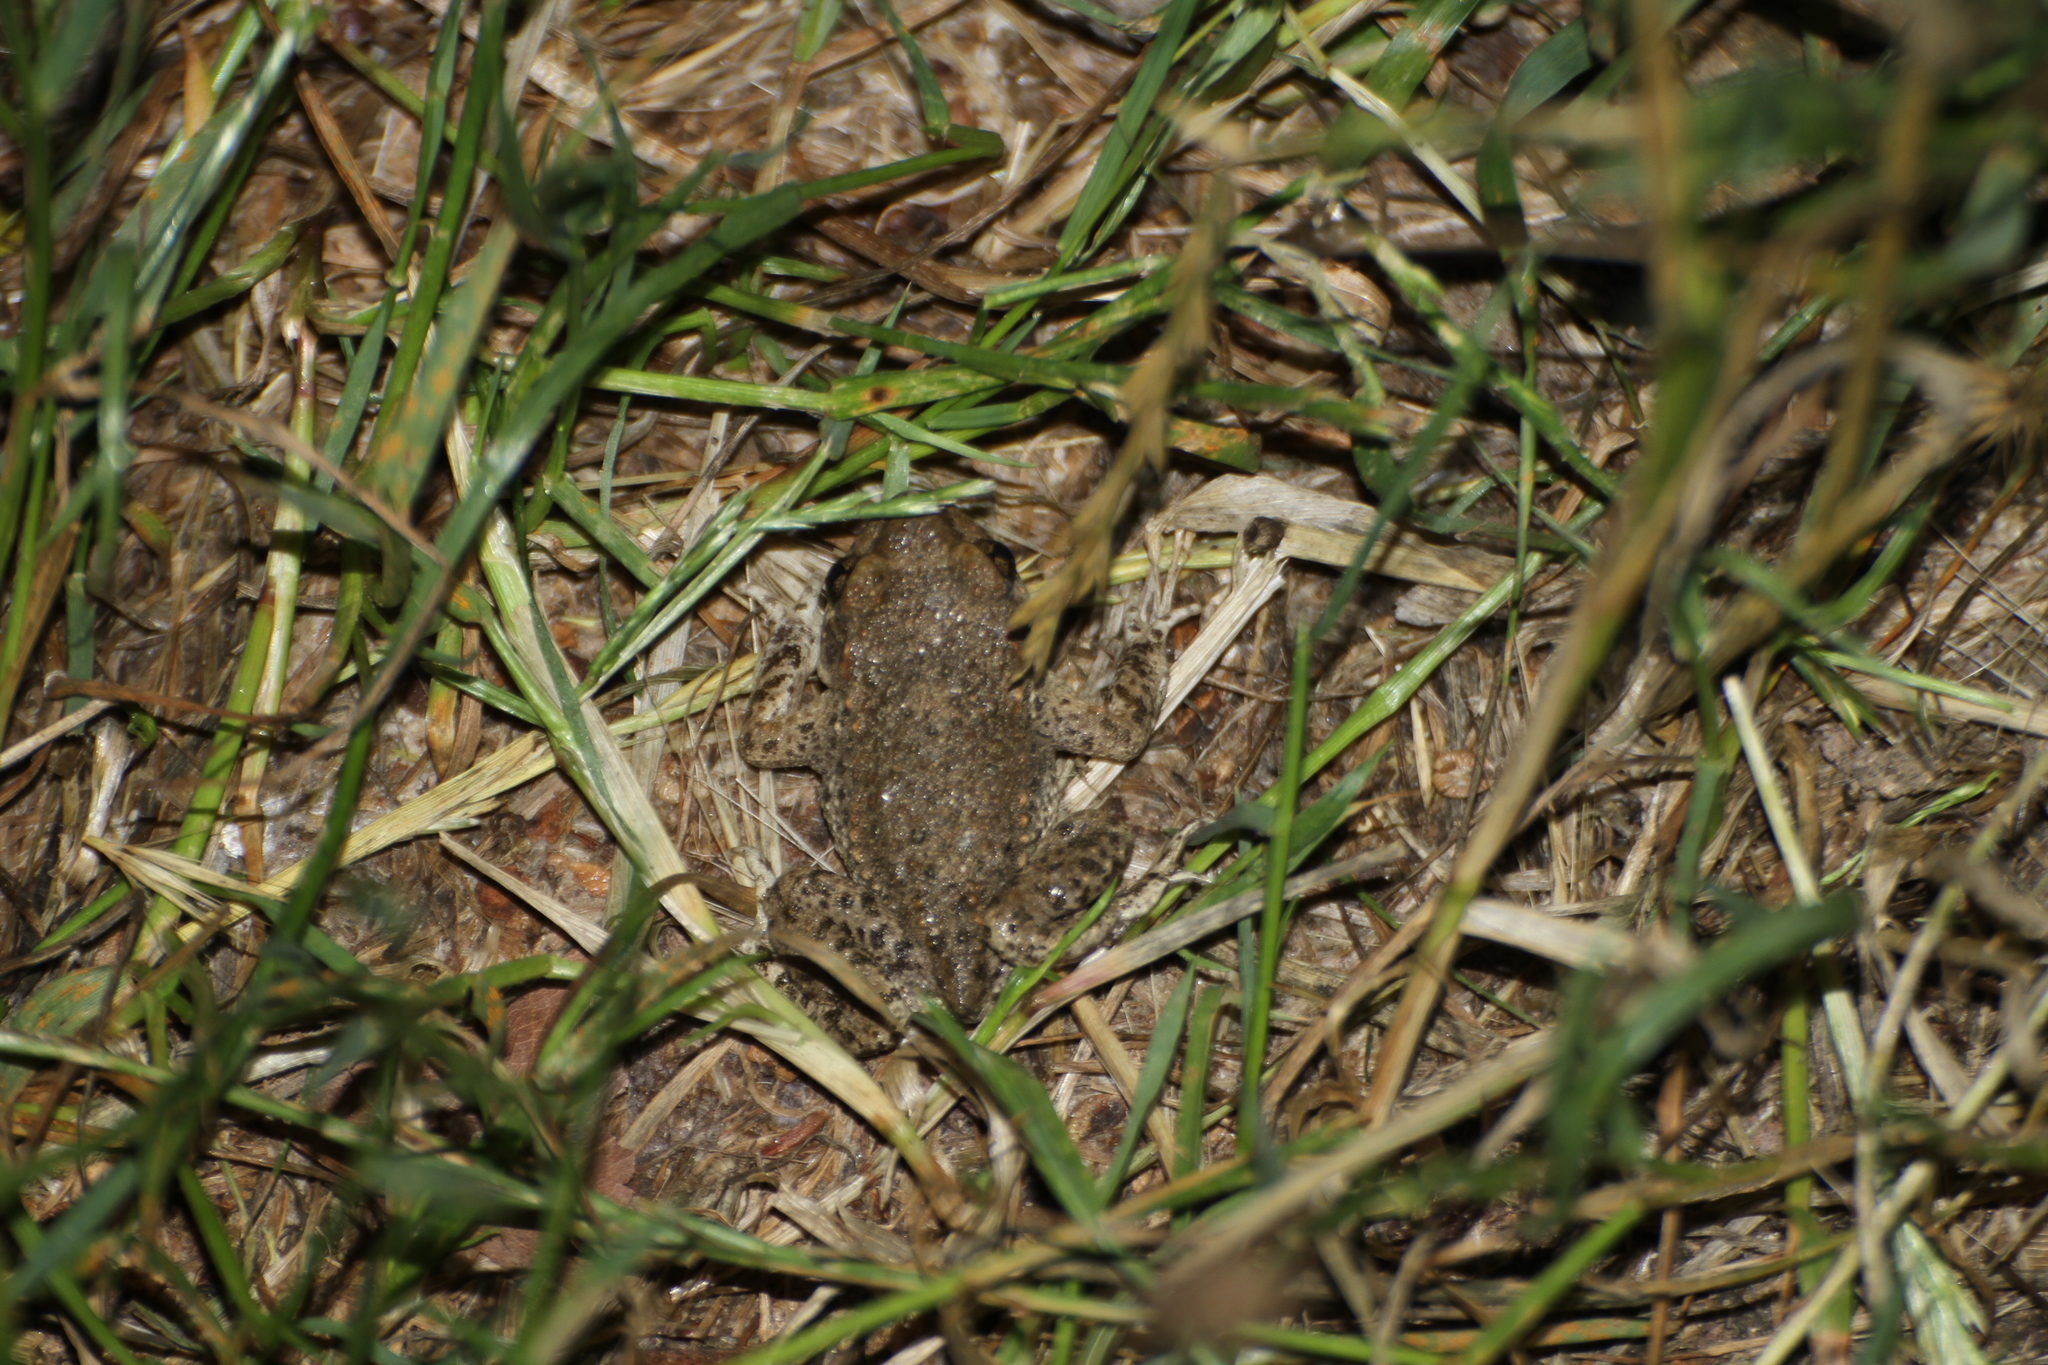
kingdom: Animalia
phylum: Chordata
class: Amphibia
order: Anura
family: Alytidae
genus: Alytes
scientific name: Alytes obstetricans
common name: Midwife toad
